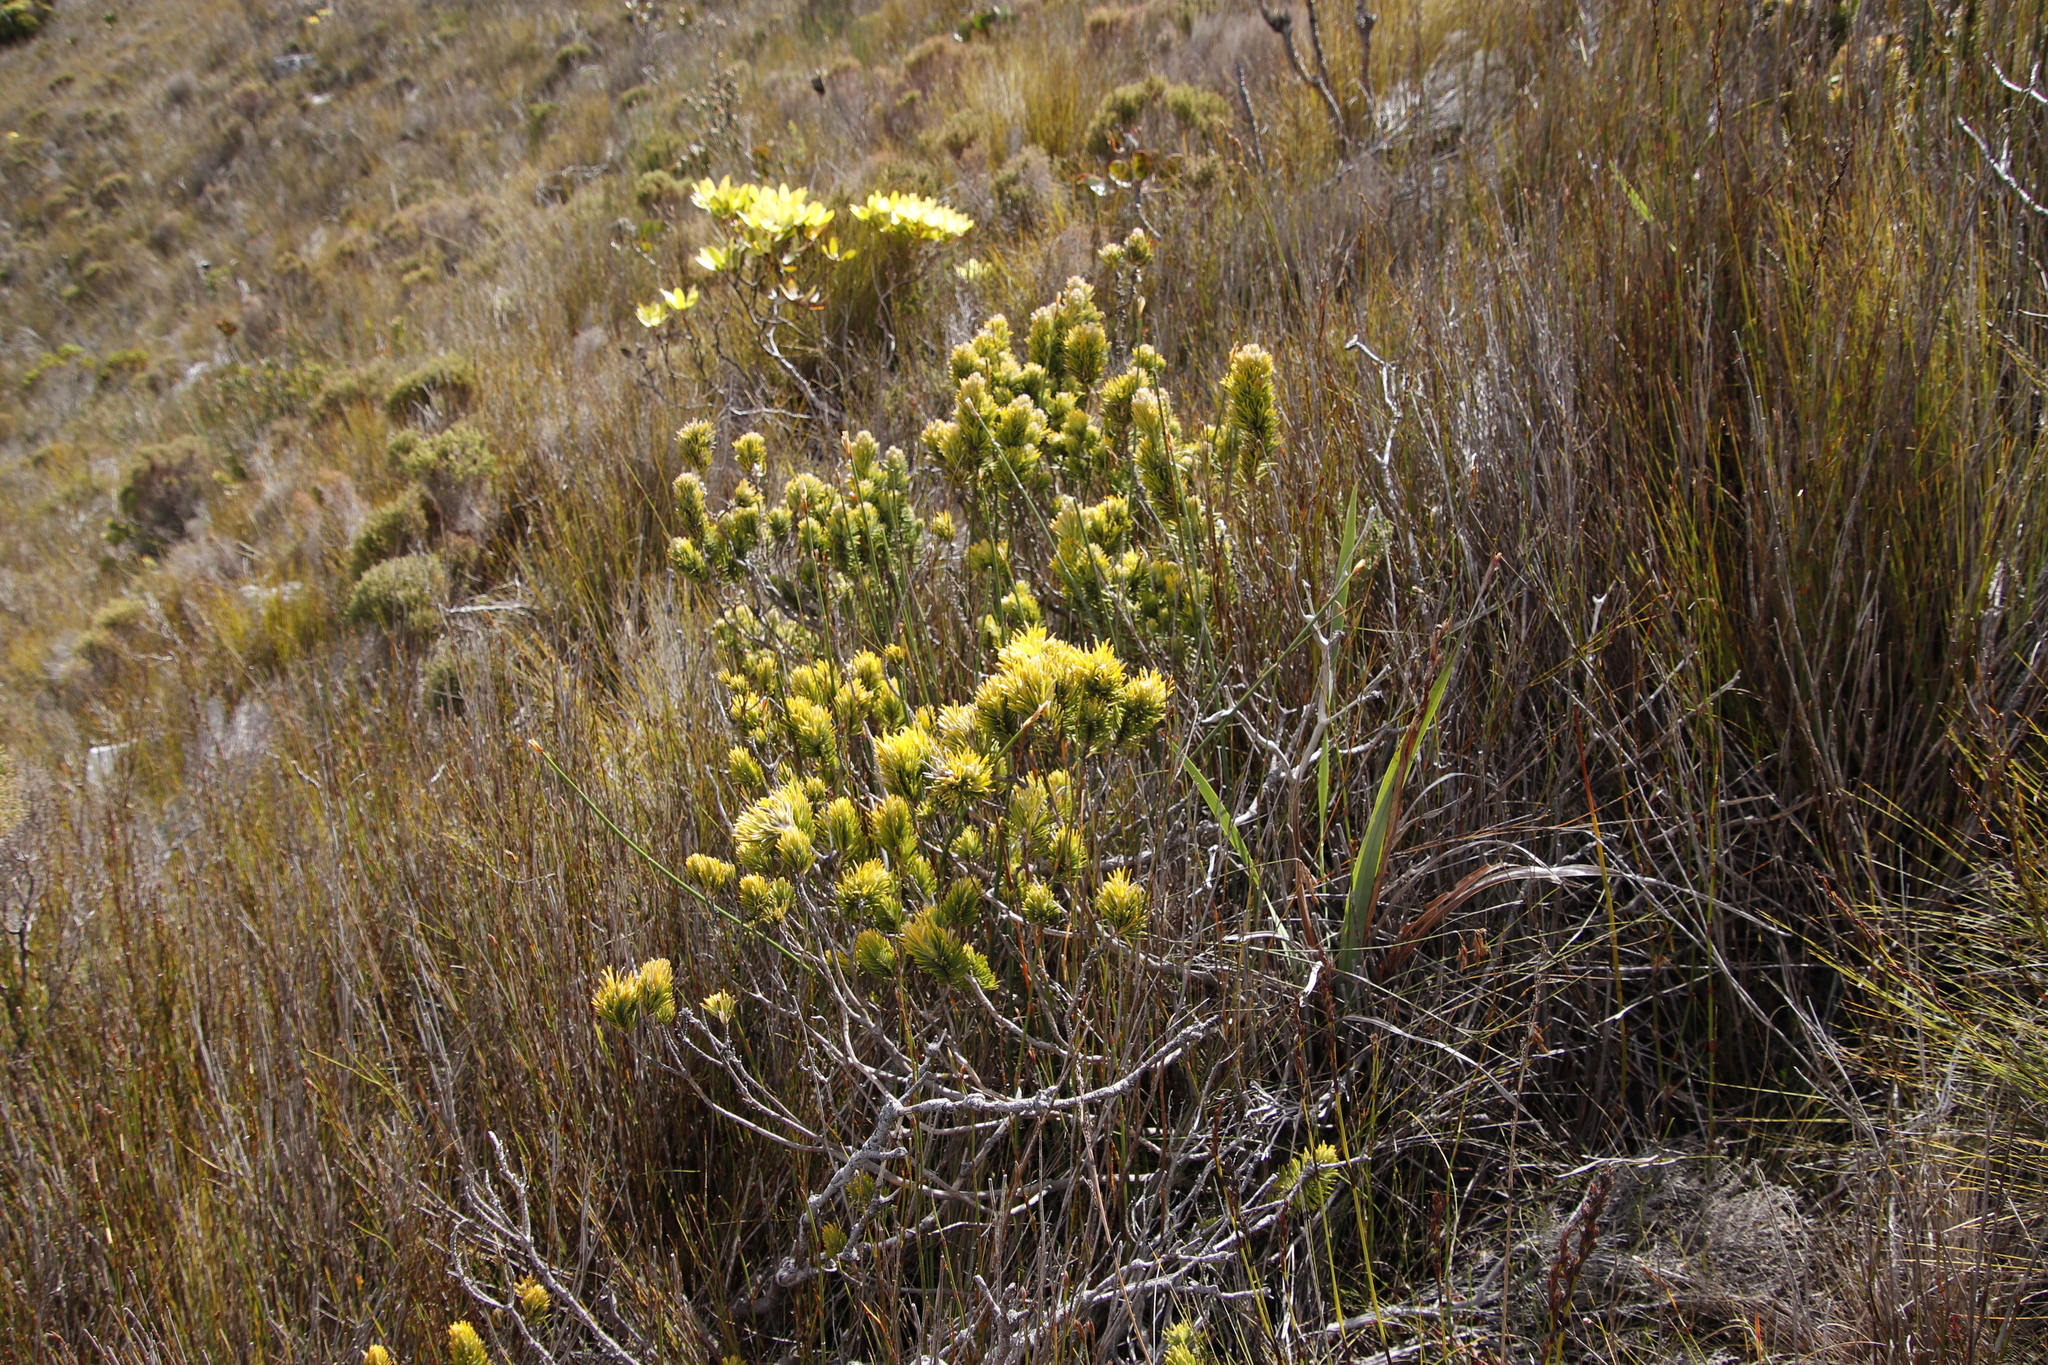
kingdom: Plantae
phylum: Tracheophyta
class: Magnoliopsida
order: Lamiales
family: Stilbaceae
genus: Retzia
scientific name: Retzia capensis
